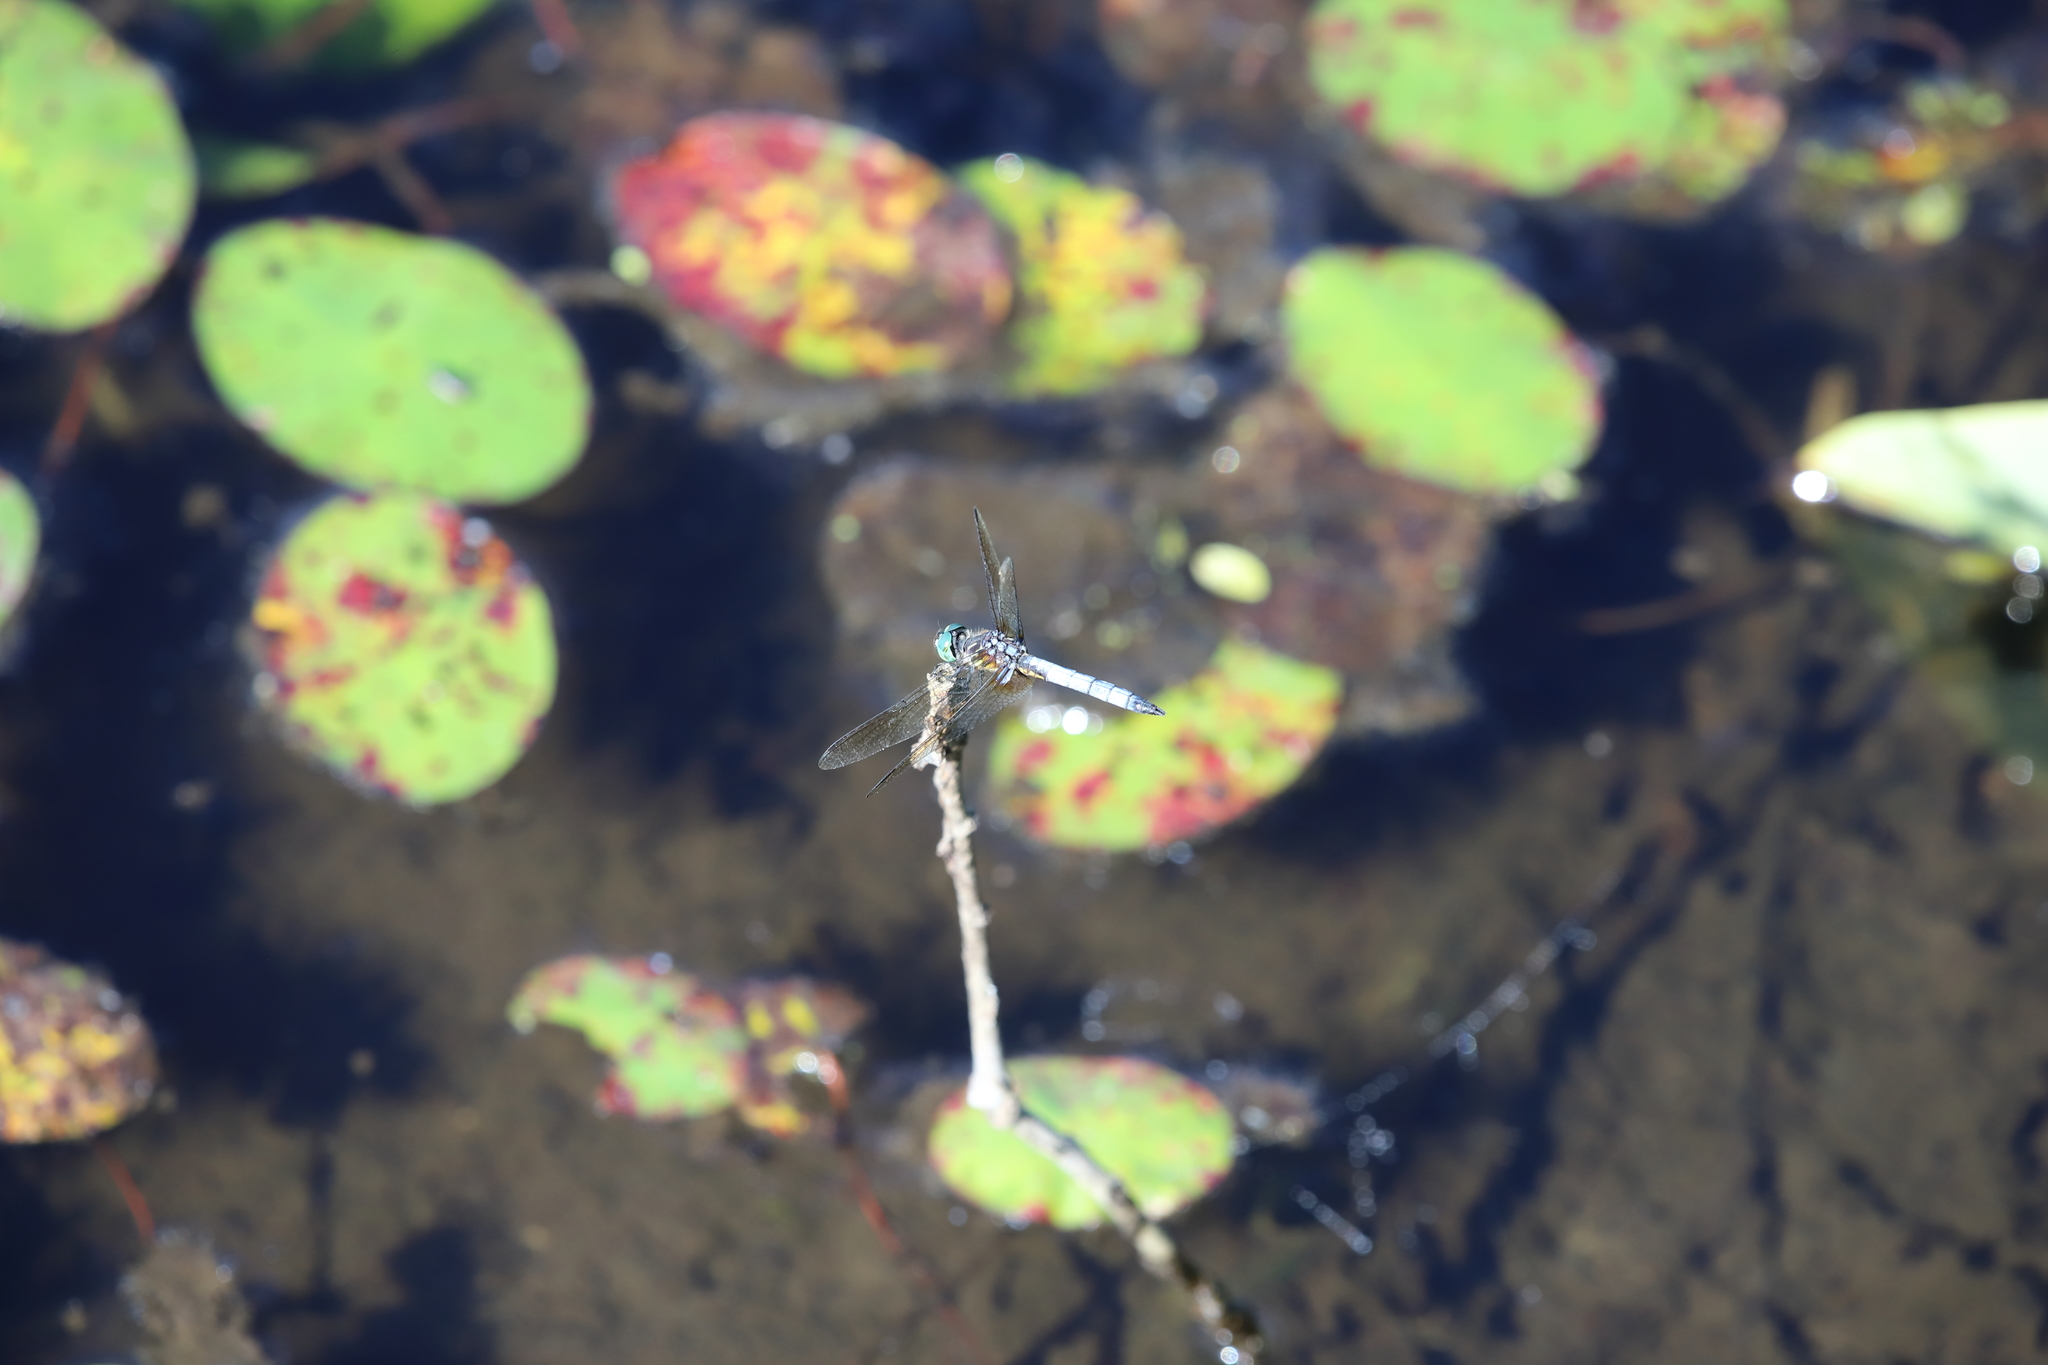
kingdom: Animalia
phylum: Arthropoda
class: Insecta
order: Odonata
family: Libellulidae
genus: Pachydiplax
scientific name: Pachydiplax longipennis
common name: Blue dasher
